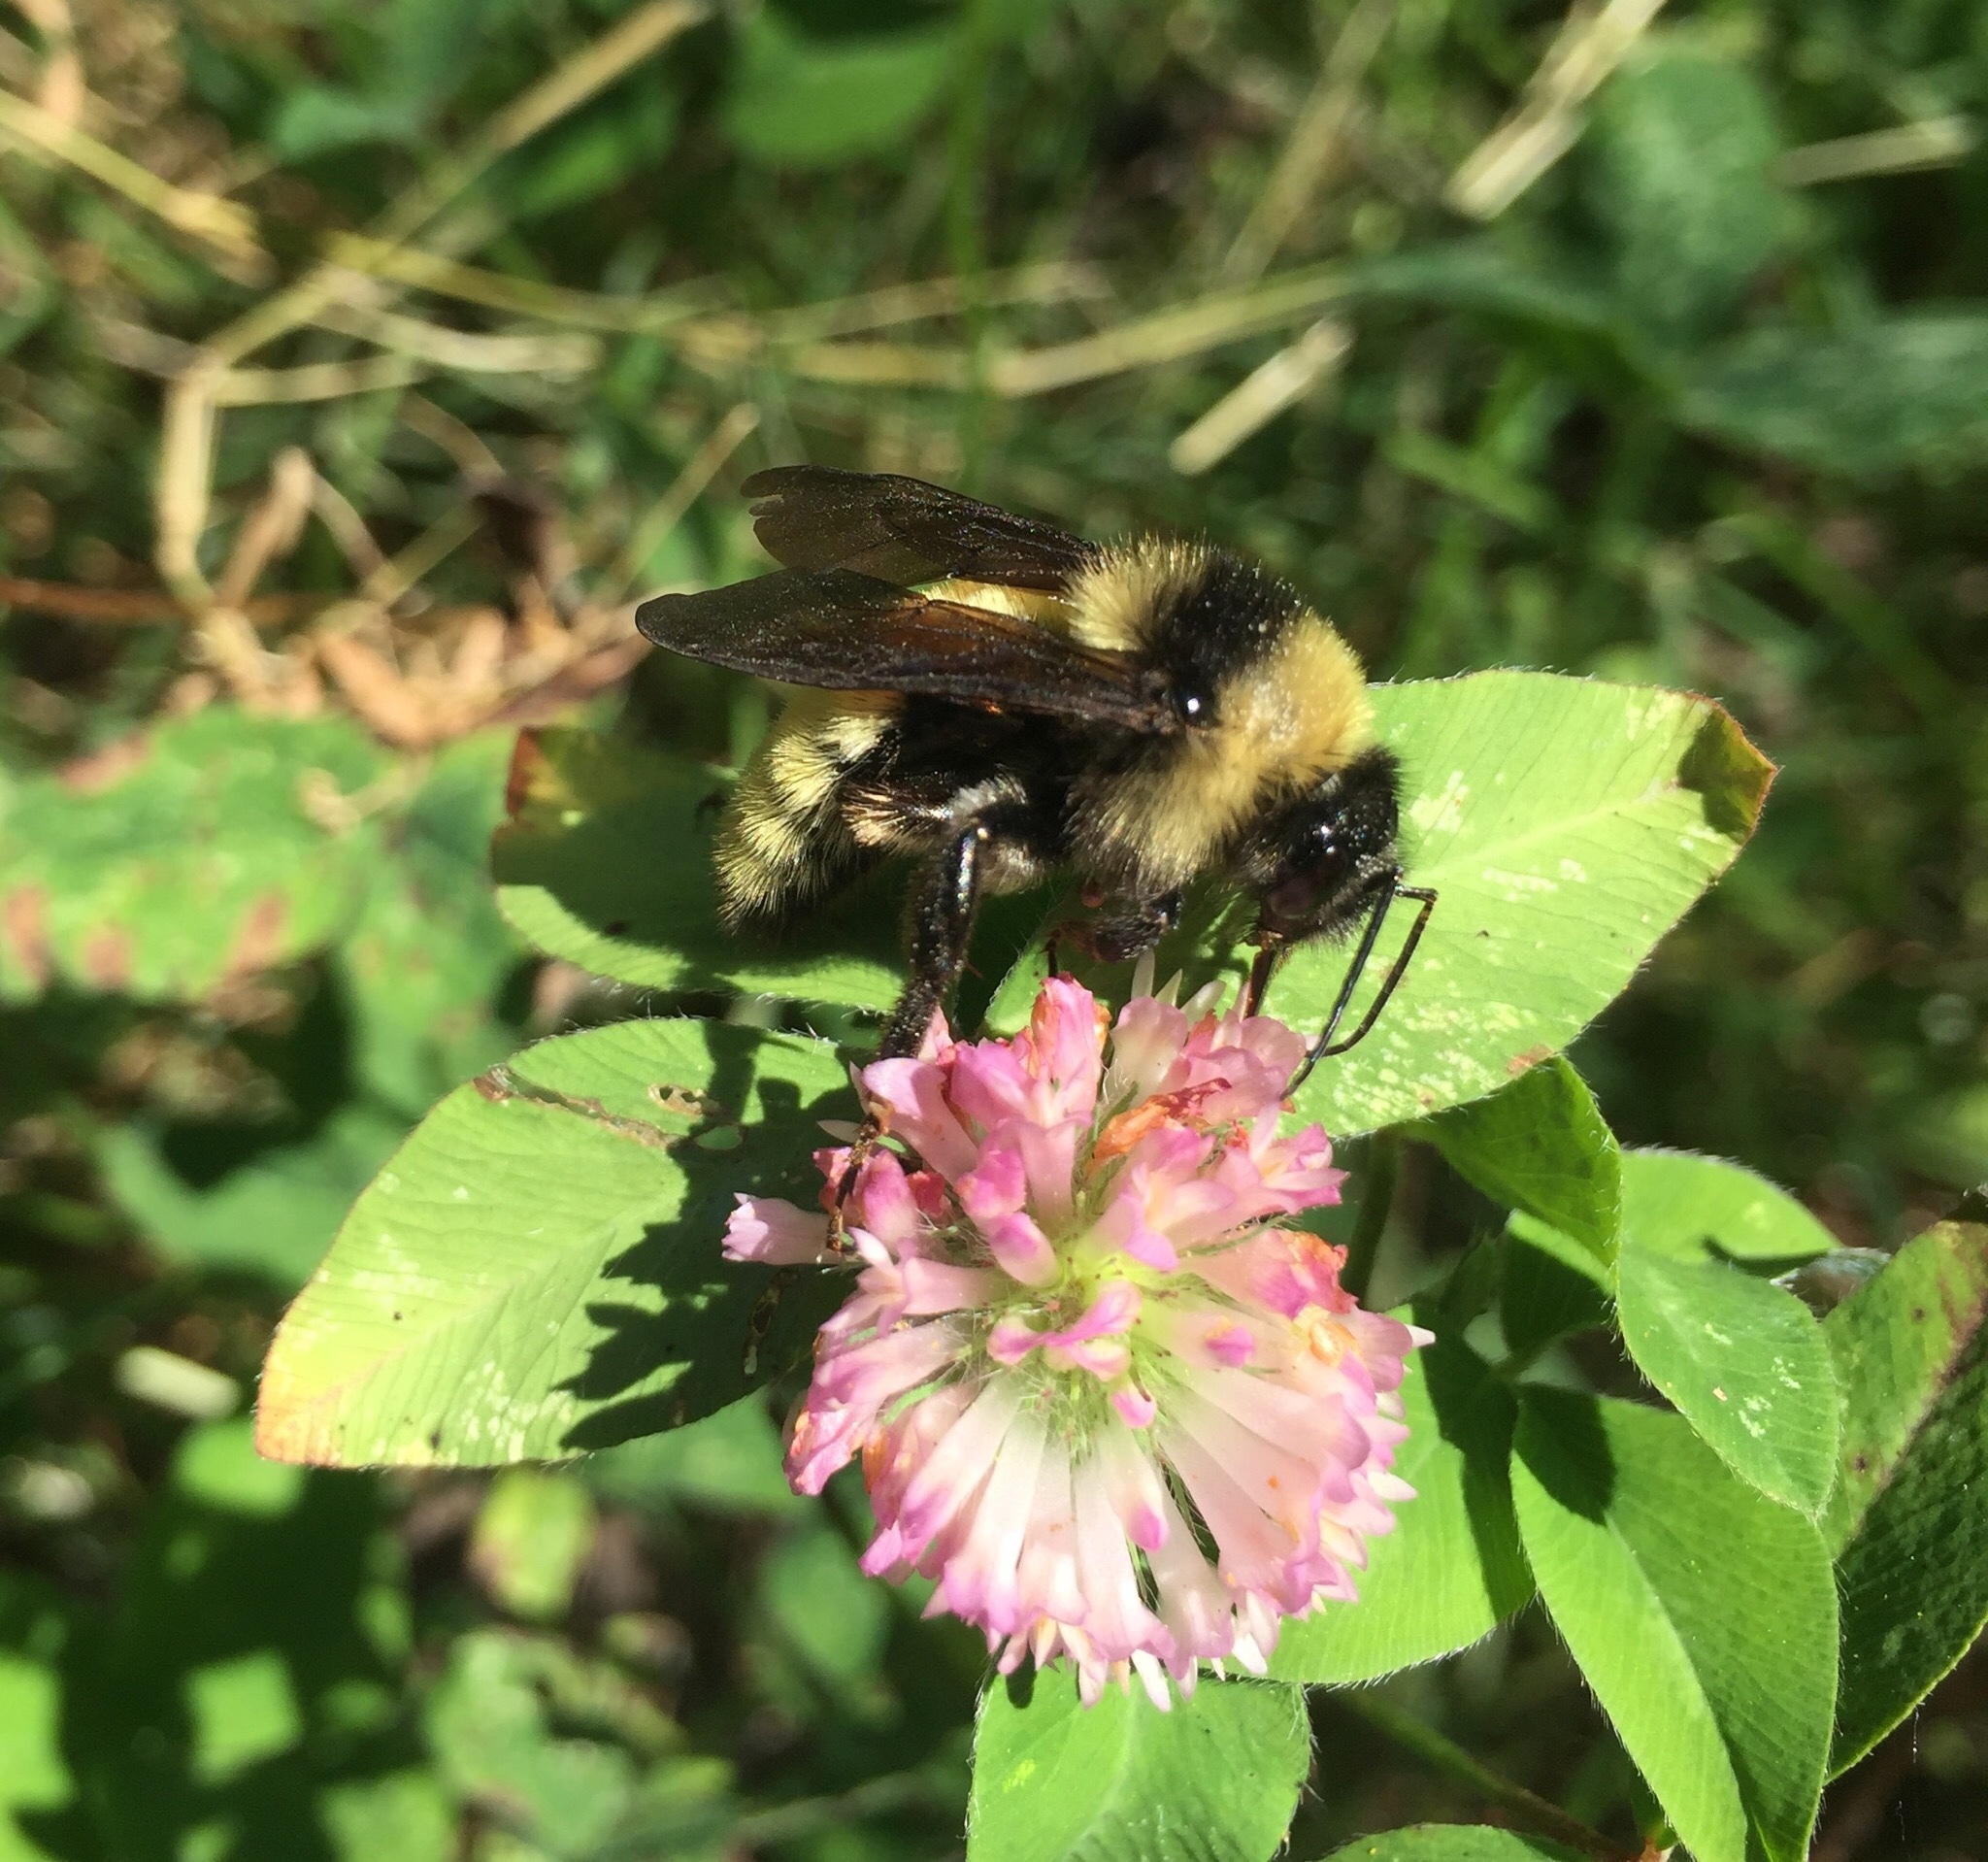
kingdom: Animalia
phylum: Arthropoda
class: Insecta
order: Hymenoptera
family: Apidae
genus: Bombus
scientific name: Bombus pensylvanicus
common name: Bumble bee
